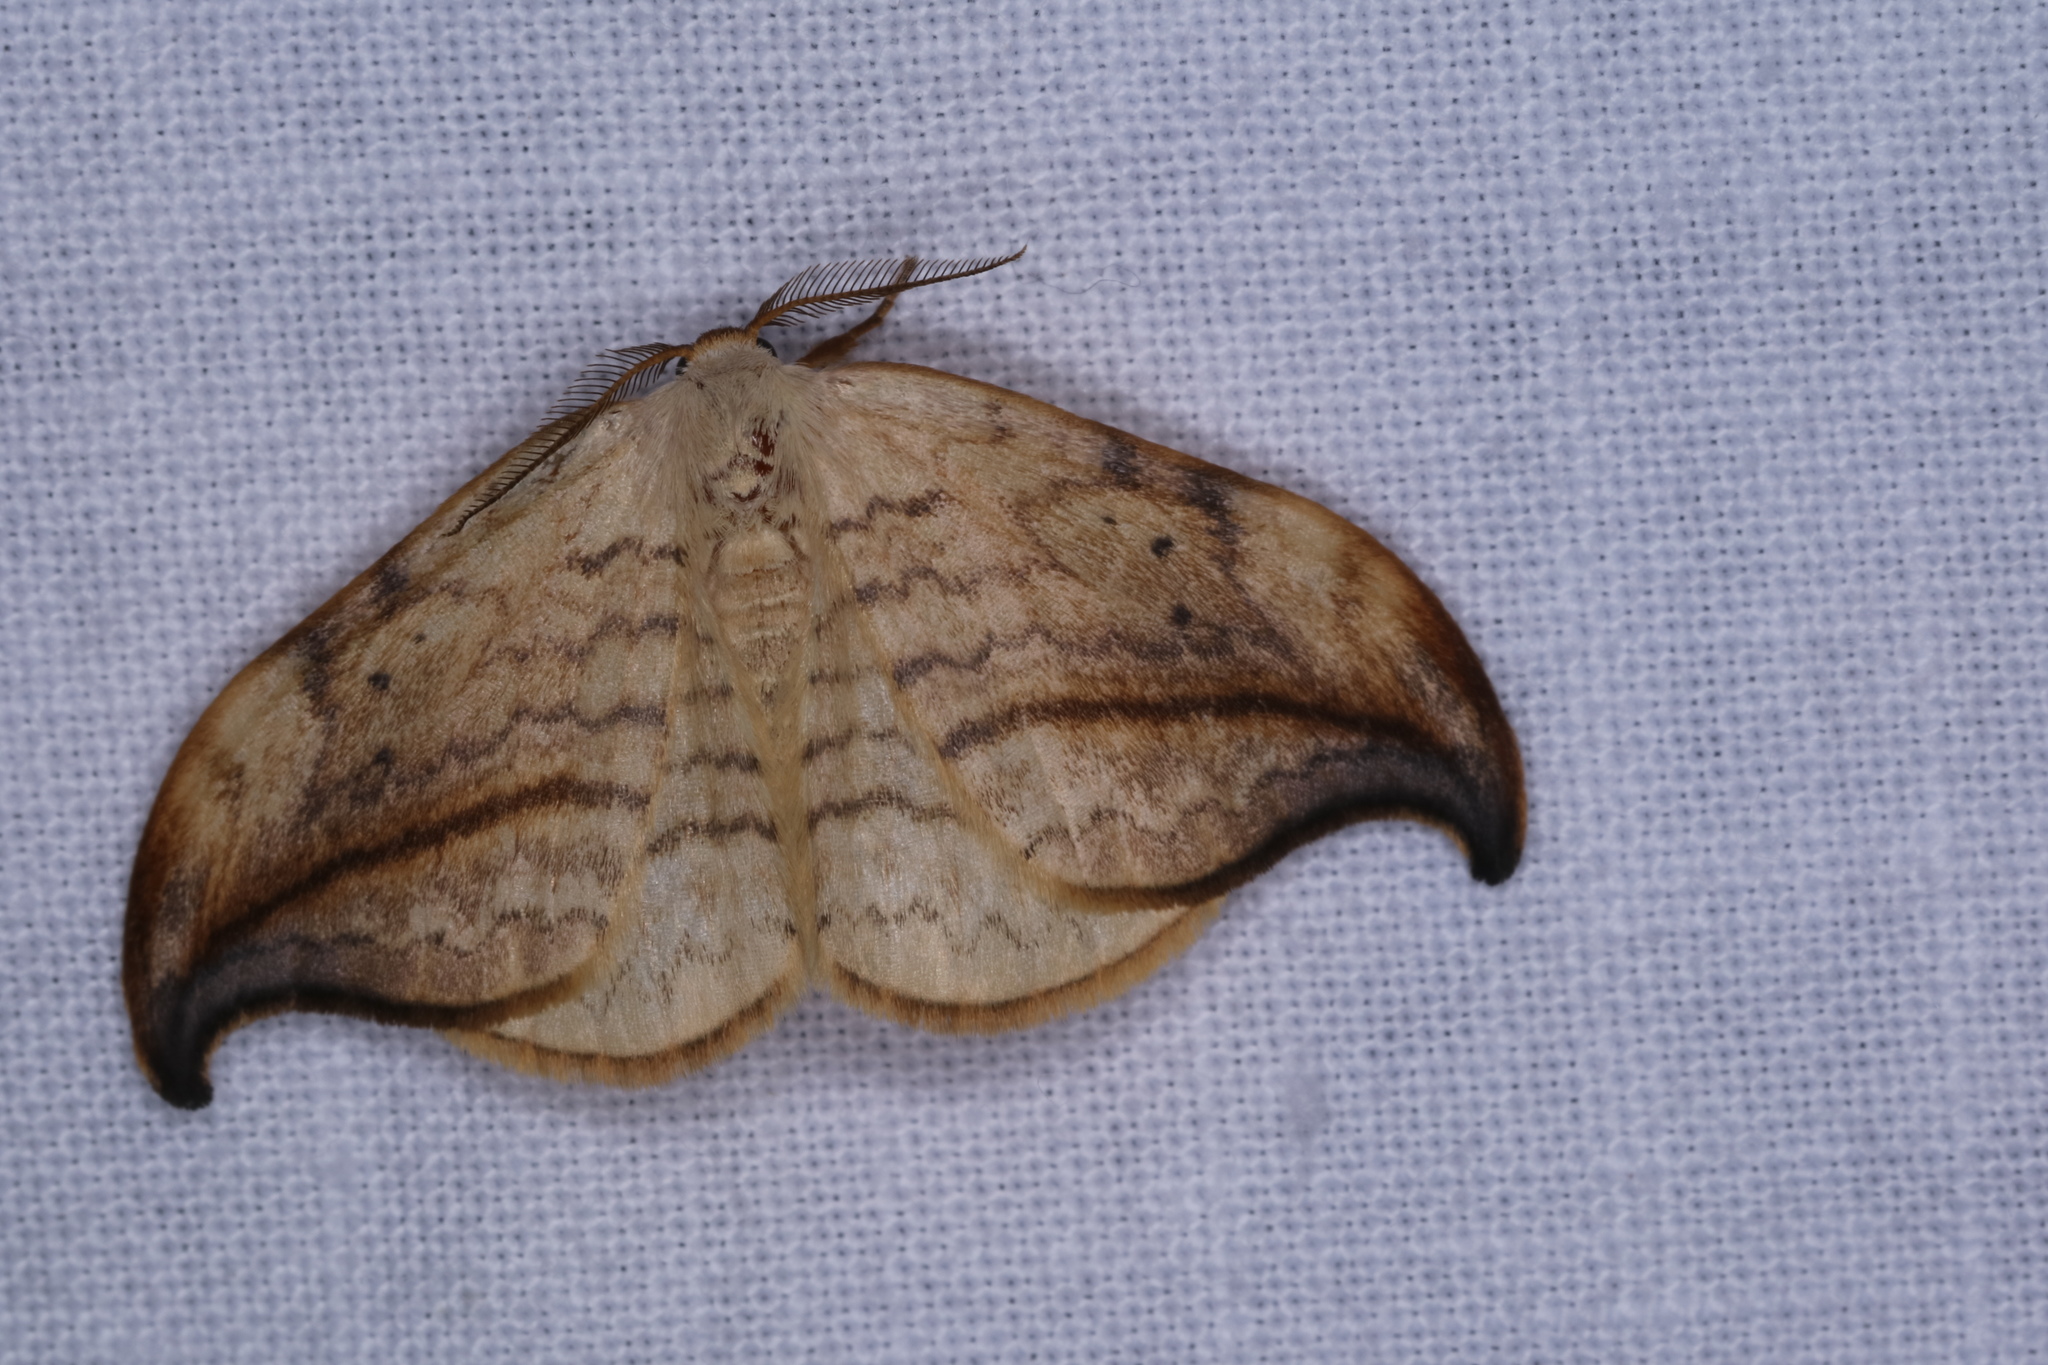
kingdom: Animalia
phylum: Arthropoda
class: Insecta
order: Lepidoptera
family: Drepanidae
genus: Drepana
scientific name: Drepana arcuata
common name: Arched hooktip moth
